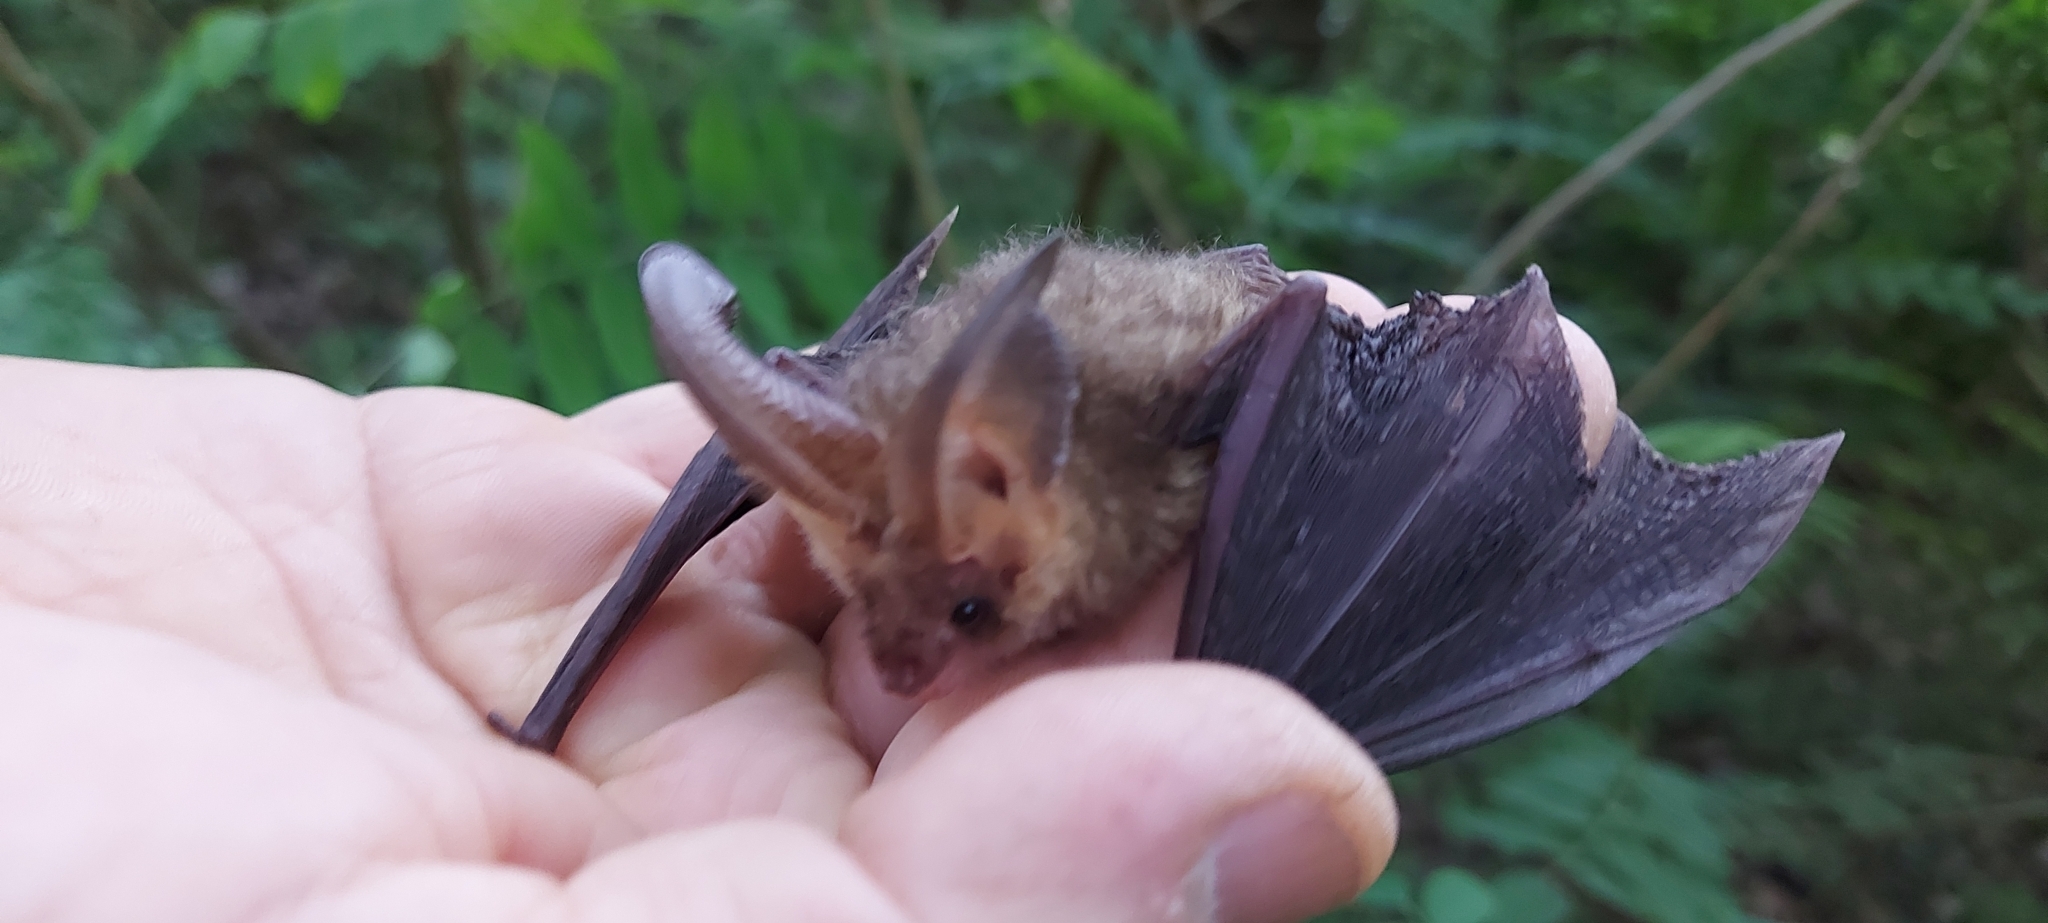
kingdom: Animalia
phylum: Chordata
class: Mammalia
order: Chiroptera
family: Vespertilionidae
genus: Plecotus
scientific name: Plecotus auritus
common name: Brown long-eared bat
